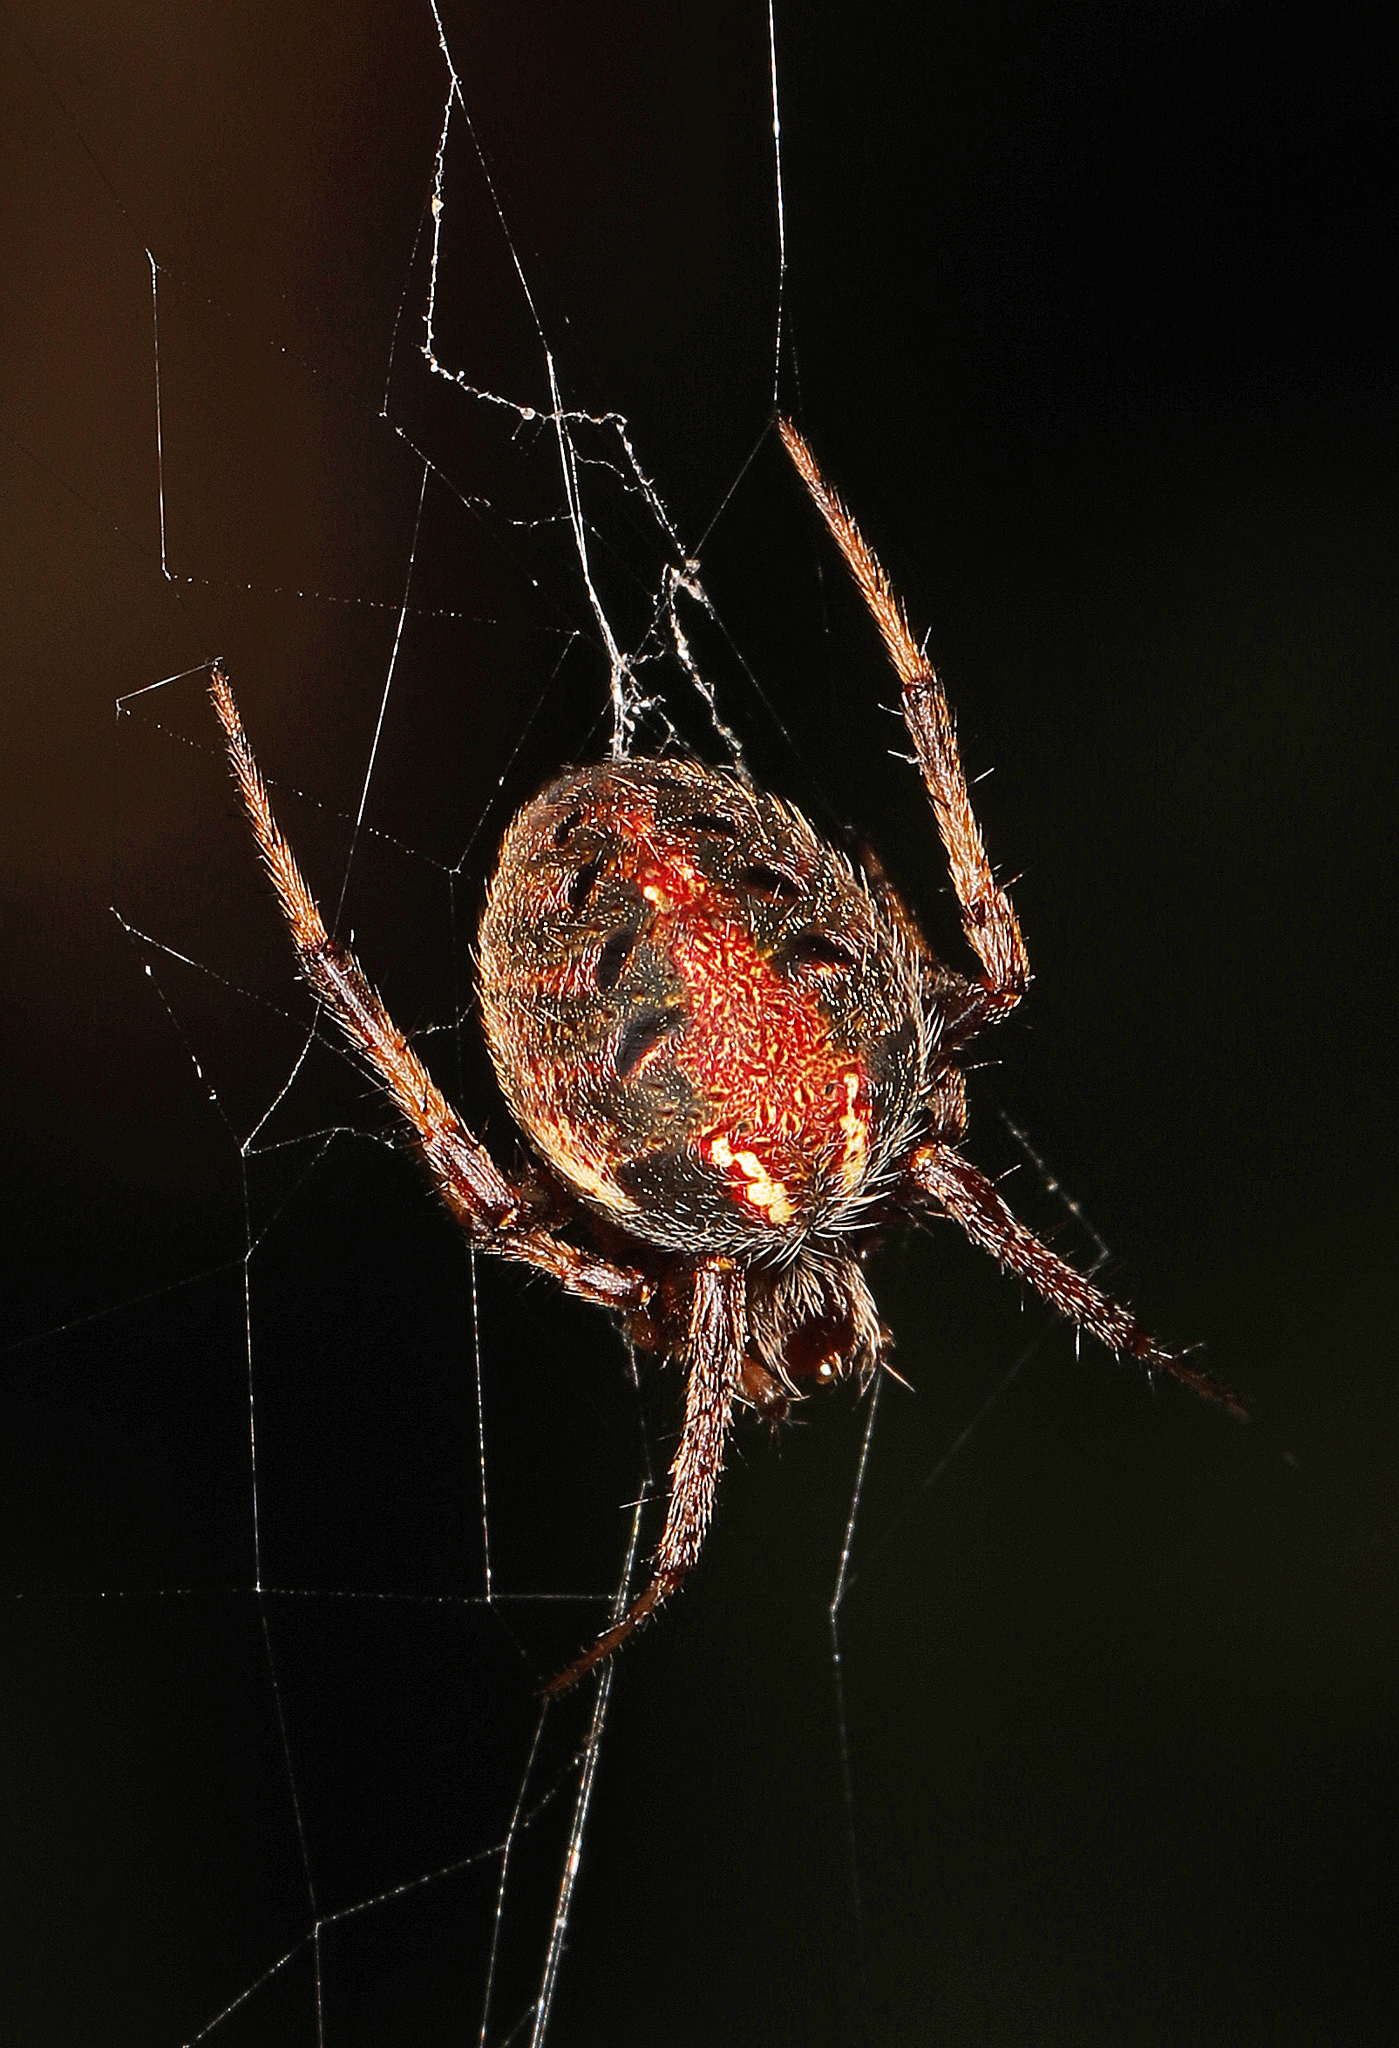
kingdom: Animalia
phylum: Arthropoda
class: Arachnida
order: Araneae
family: Araneidae
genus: Neoscona
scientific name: Neoscona arabesca
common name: Orb weavers
